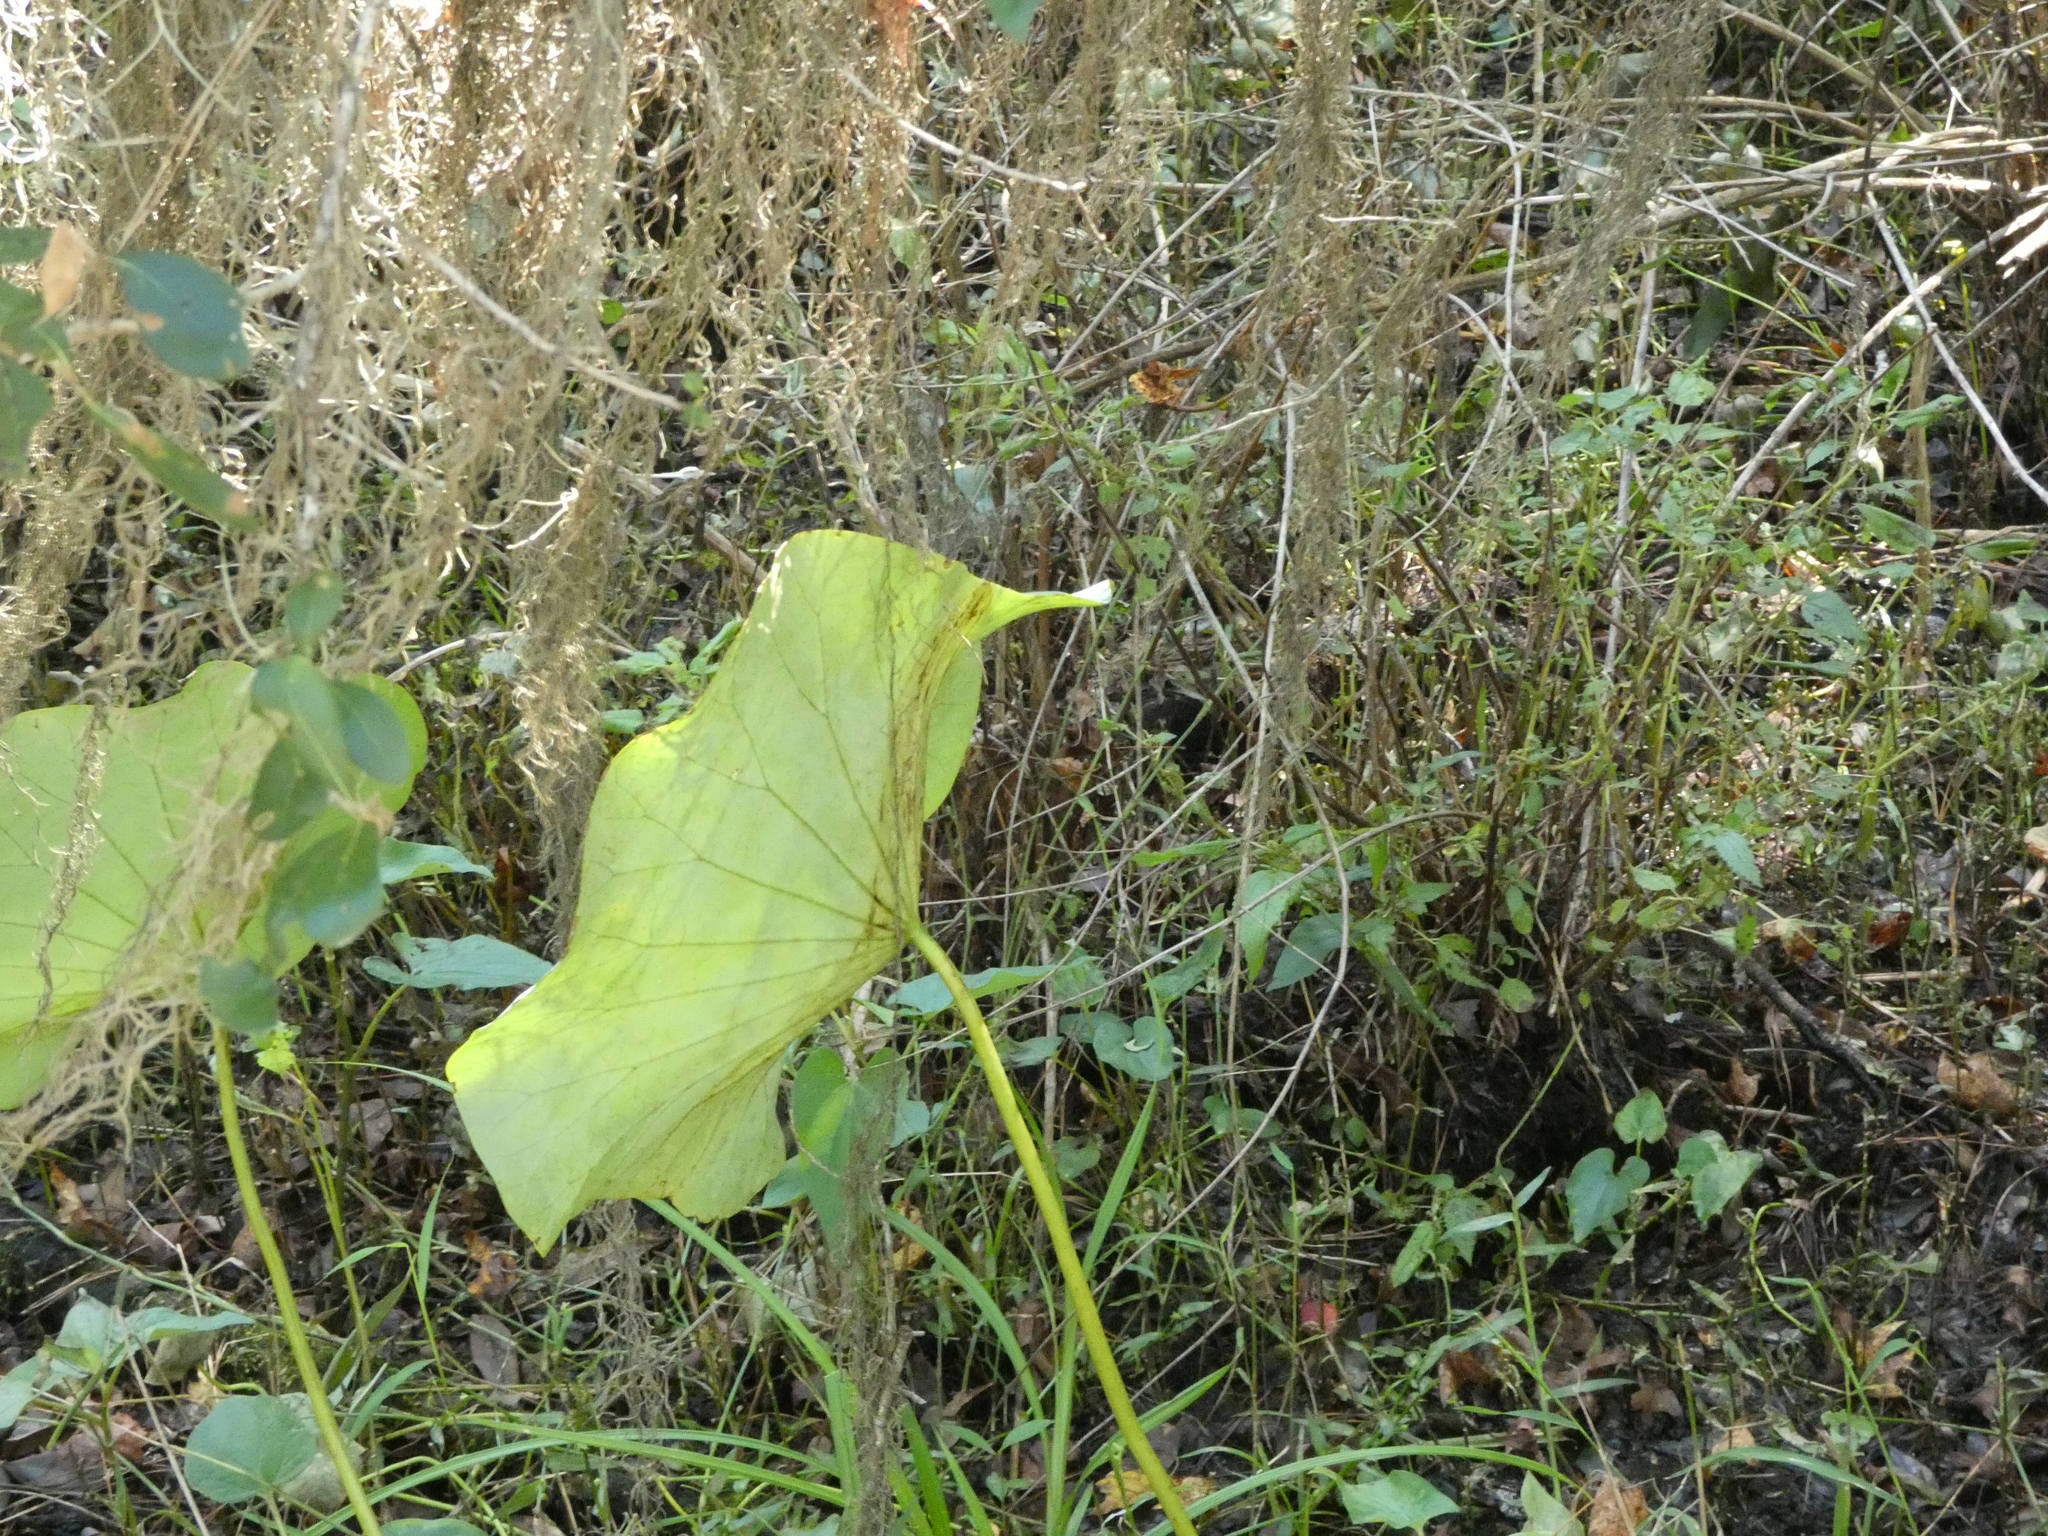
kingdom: Plantae
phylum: Tracheophyta
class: Magnoliopsida
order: Proteales
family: Nelumbonaceae
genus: Nelumbo
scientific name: Nelumbo lutea
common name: American lotus
